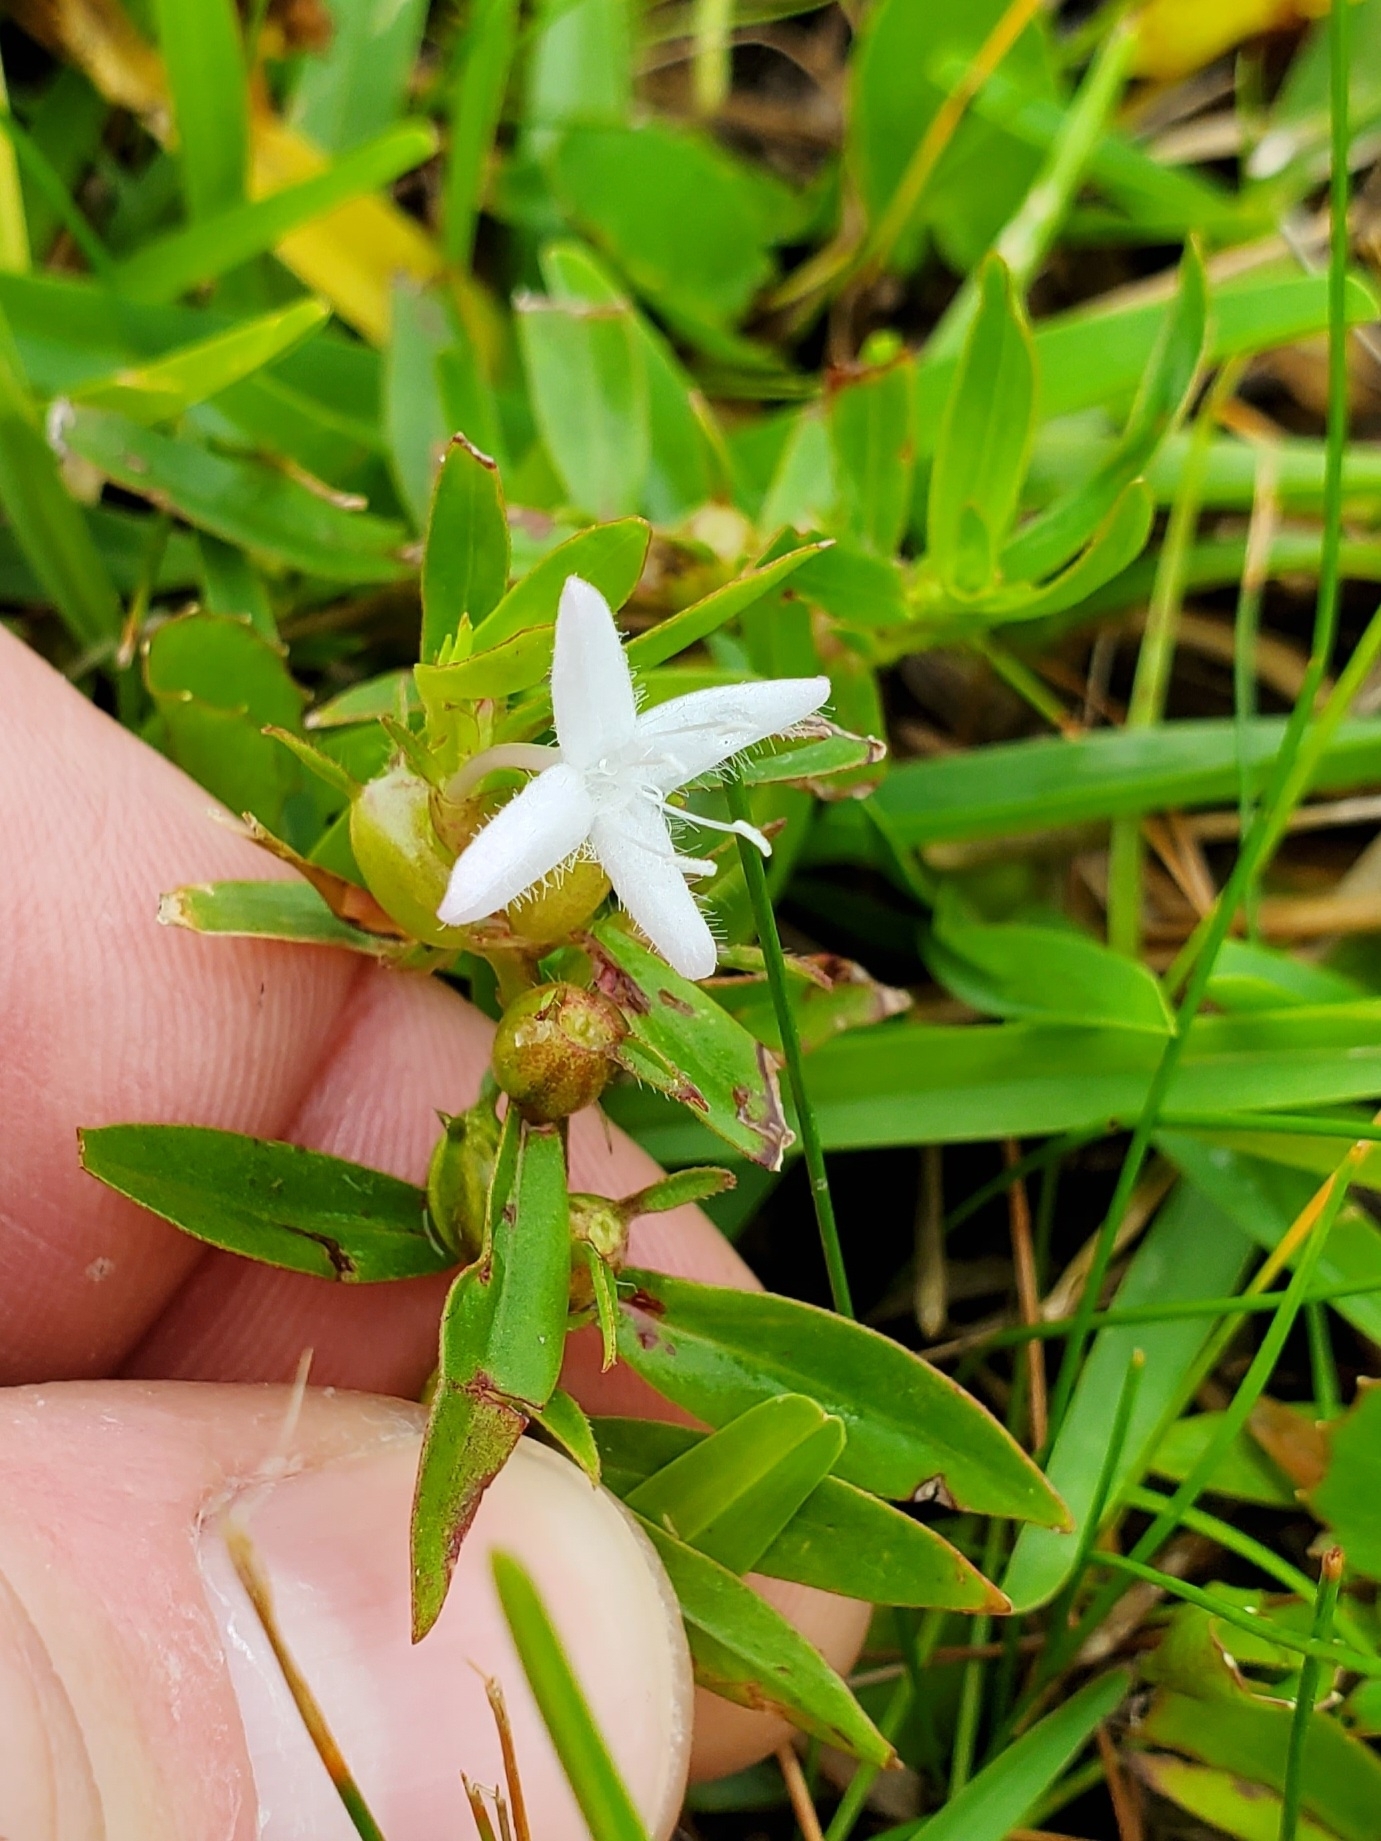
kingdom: Plantae
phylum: Tracheophyta
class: Magnoliopsida
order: Gentianales
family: Rubiaceae
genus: Diodia
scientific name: Diodia virginiana
